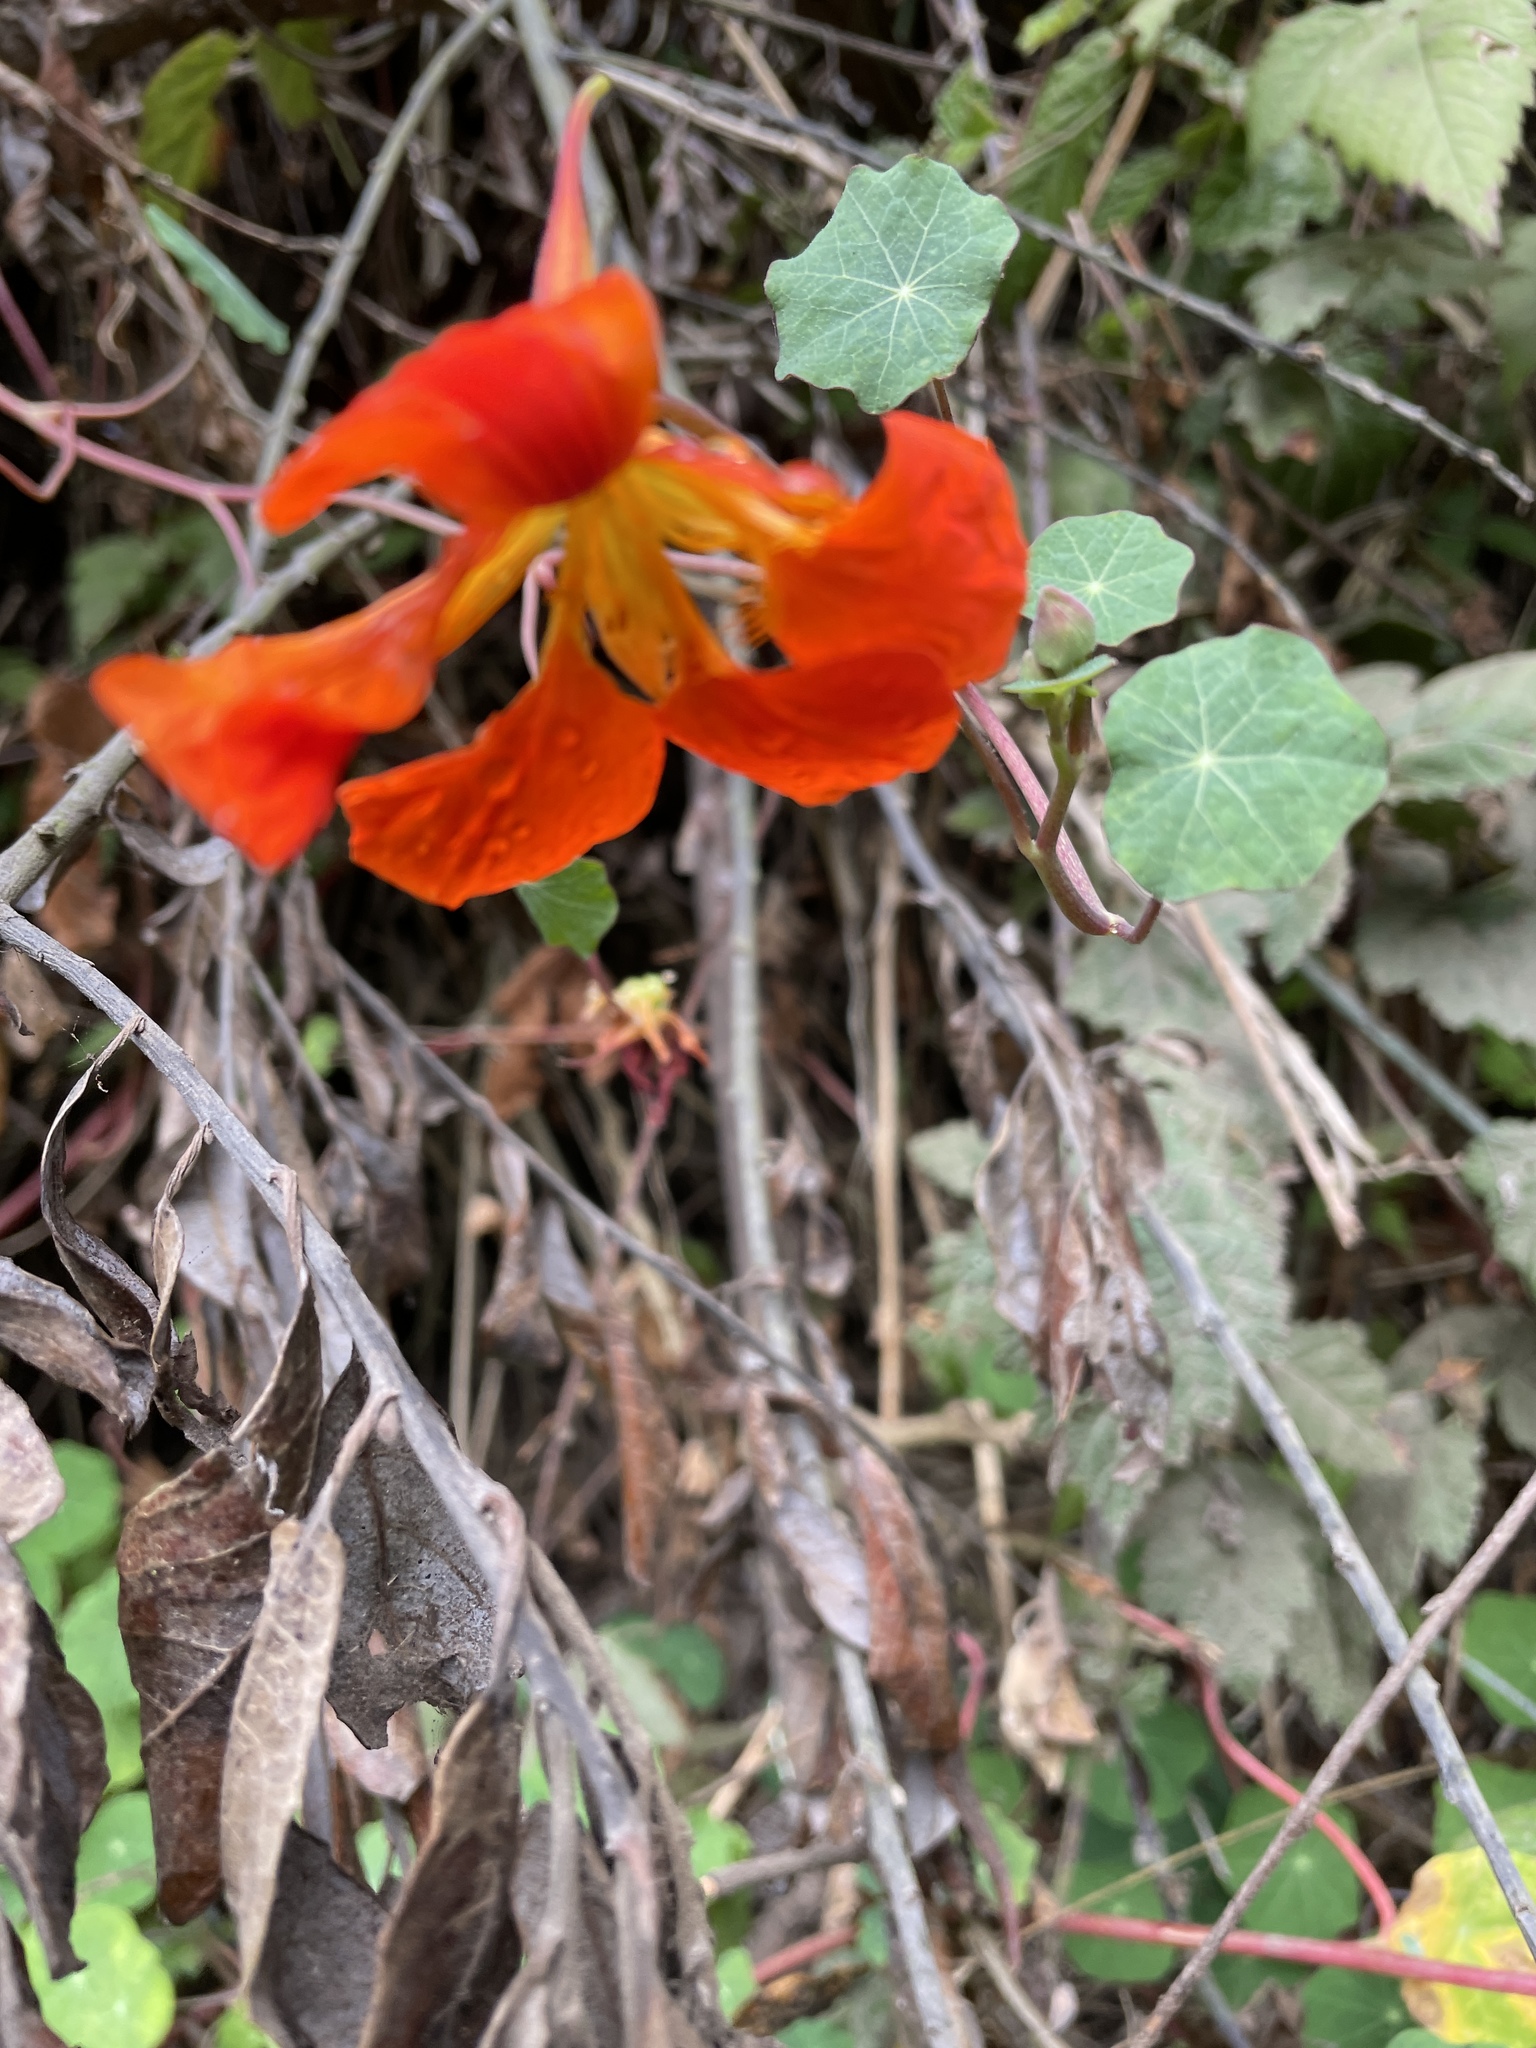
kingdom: Plantae
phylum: Tracheophyta
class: Magnoliopsida
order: Brassicales
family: Tropaeolaceae
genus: Tropaeolum
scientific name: Tropaeolum majus
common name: Nasturtium
